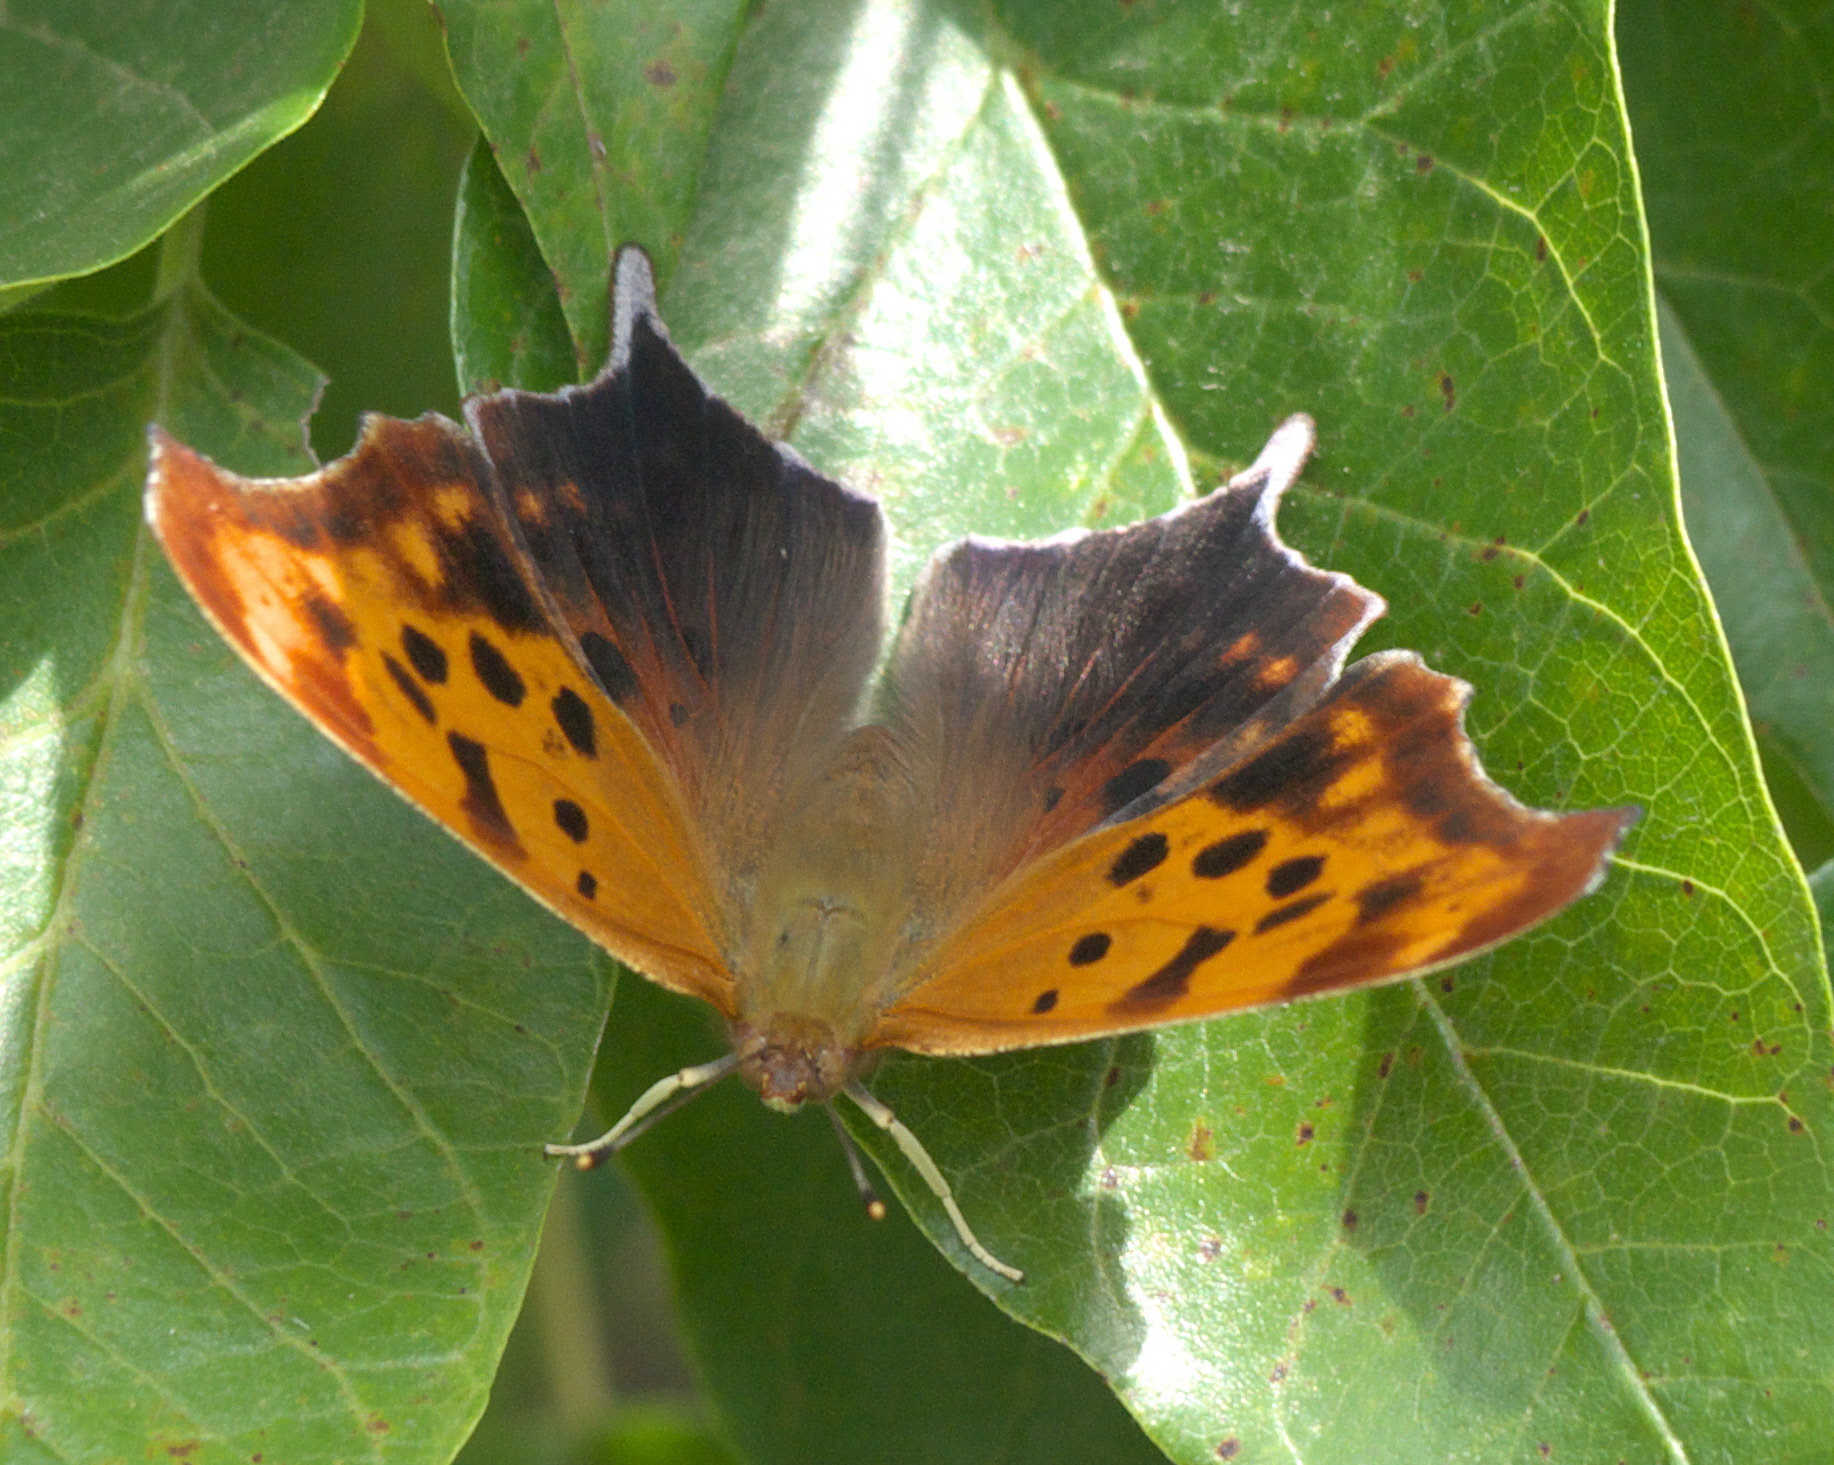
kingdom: Animalia
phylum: Arthropoda
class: Insecta
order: Lepidoptera
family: Nymphalidae
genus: Polygonia
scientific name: Polygonia interrogationis
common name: Question mark
